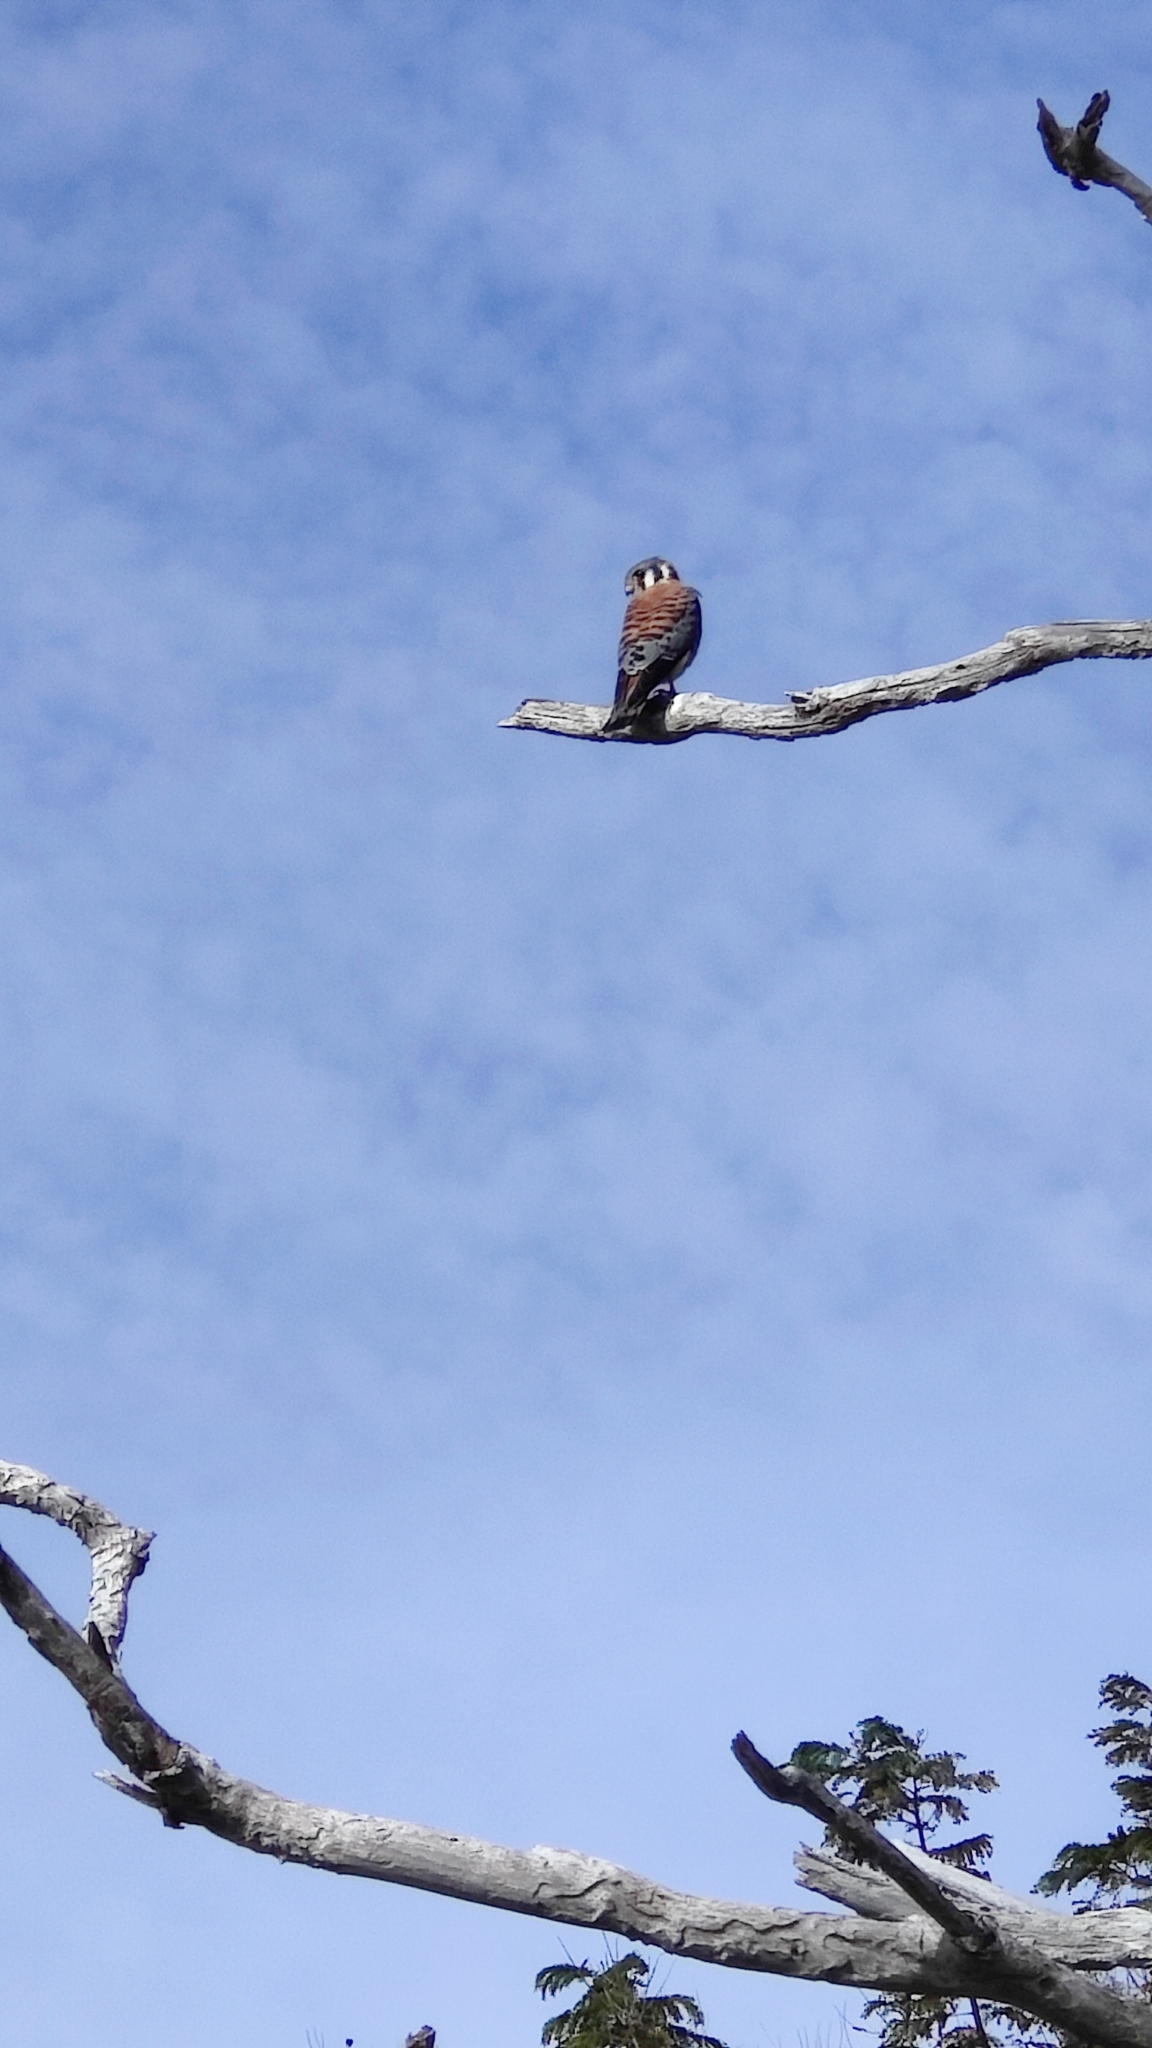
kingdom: Animalia
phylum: Chordata
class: Aves
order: Falconiformes
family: Falconidae
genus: Falco
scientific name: Falco sparverius
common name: American kestrel
